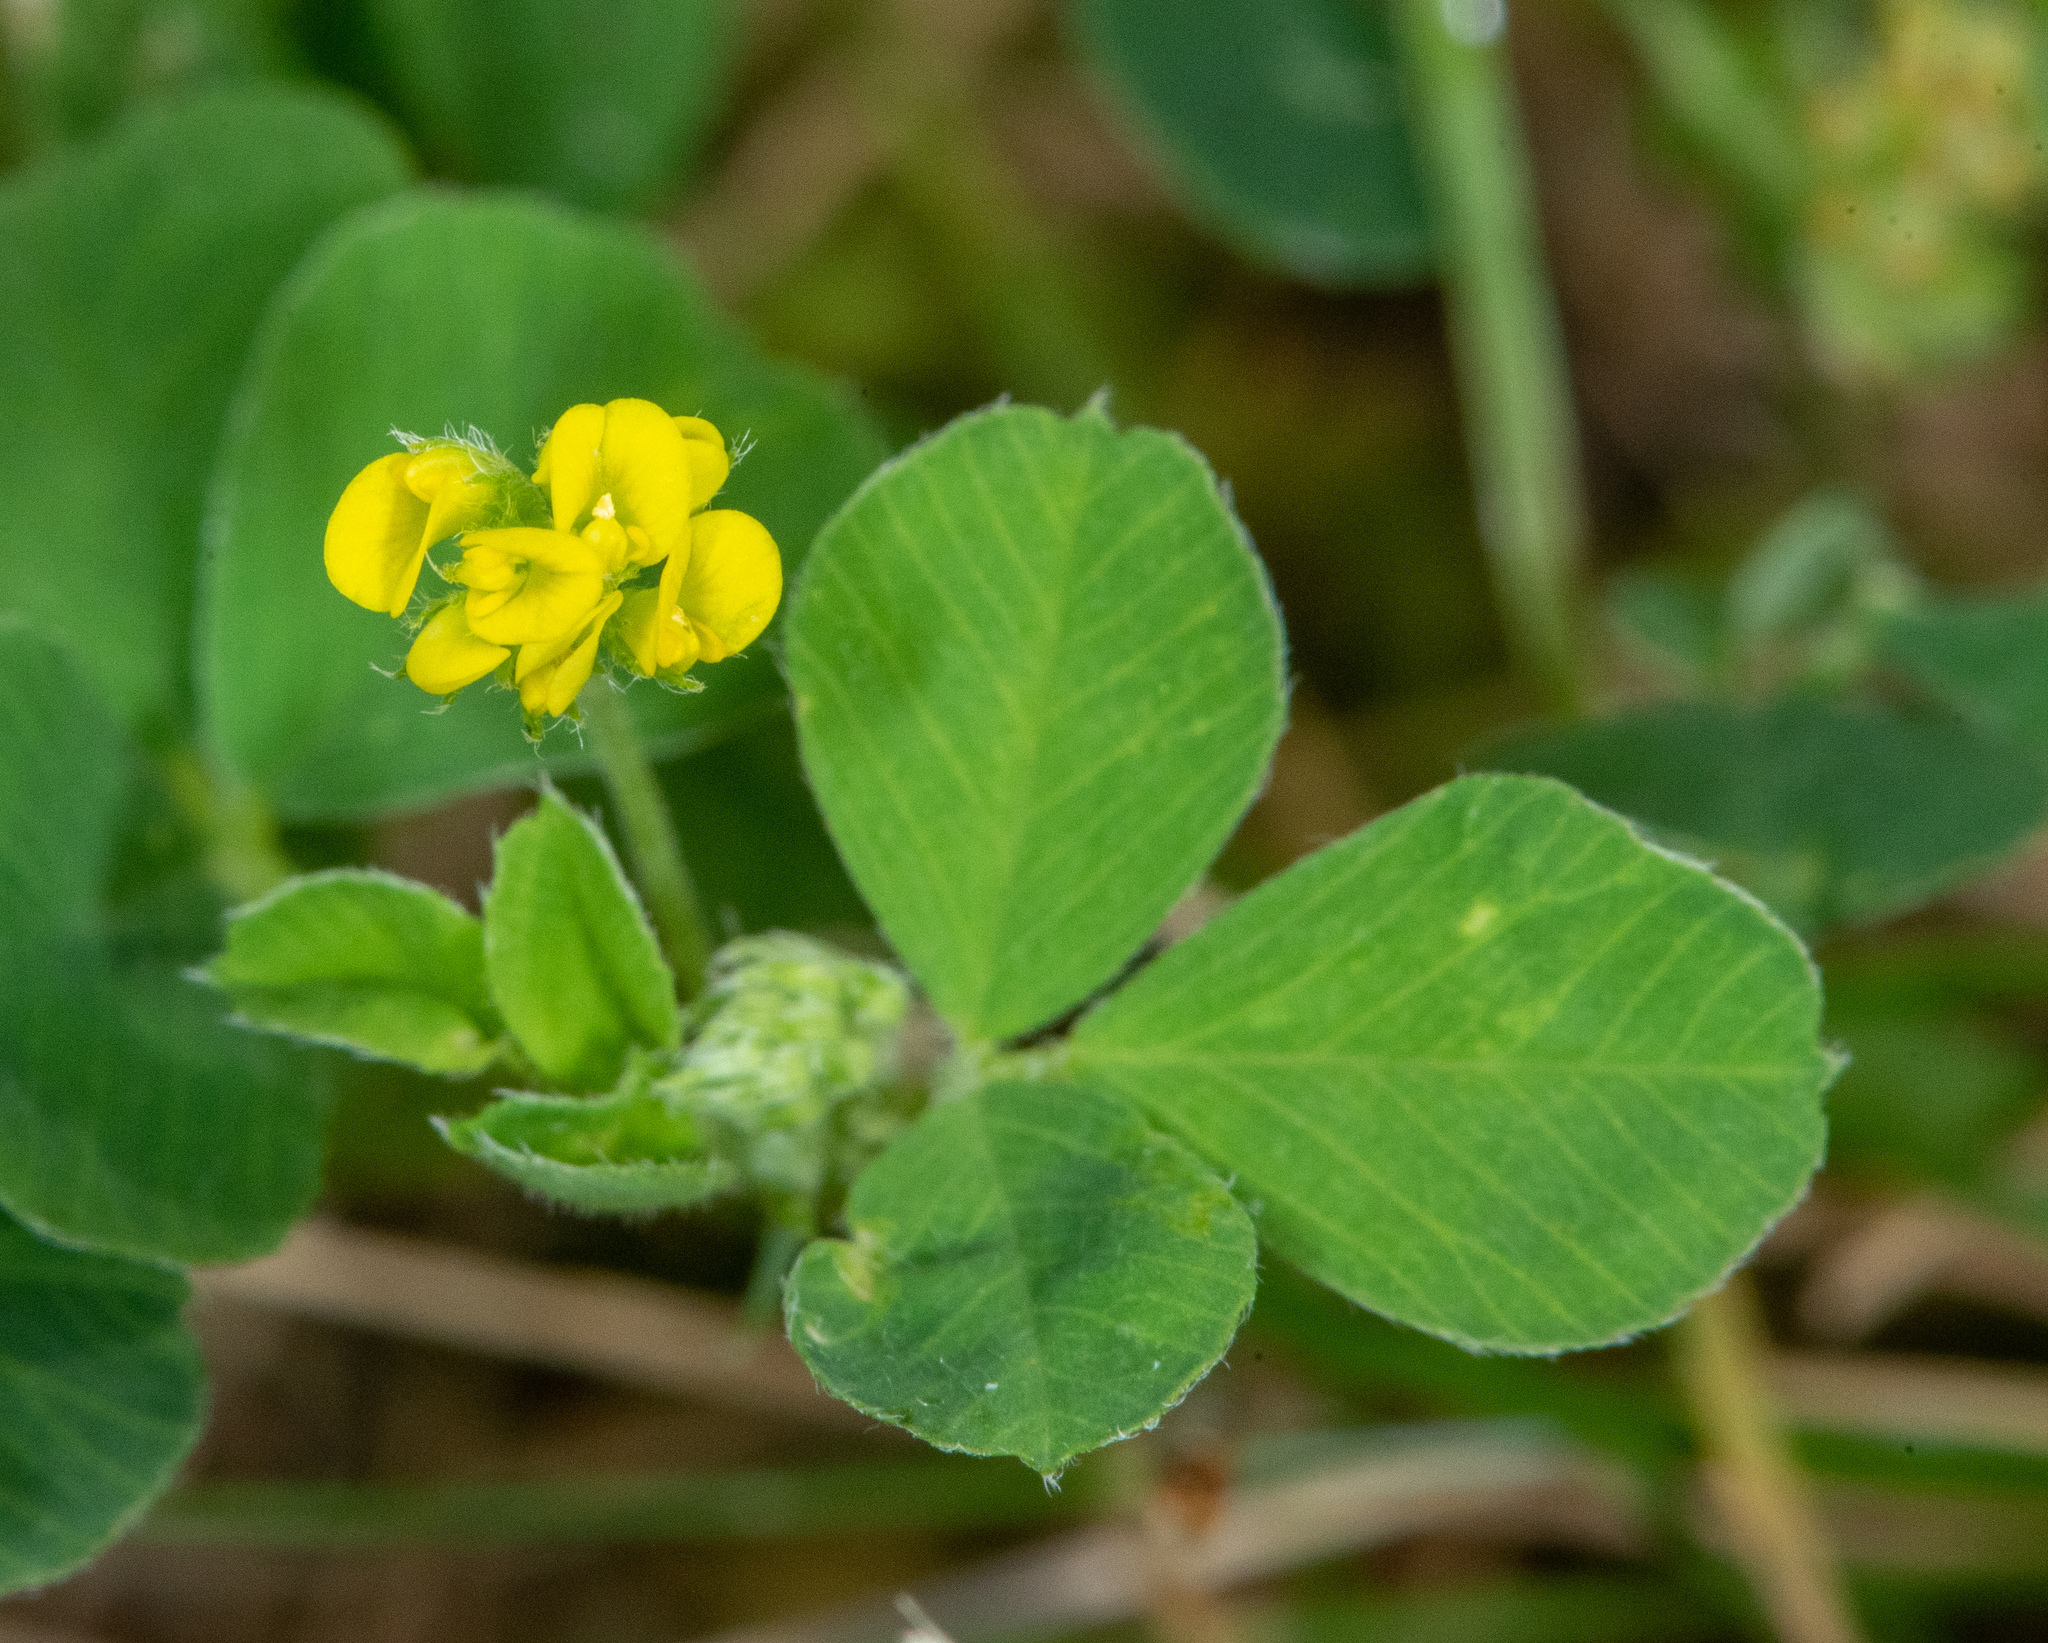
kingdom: Plantae
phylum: Tracheophyta
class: Magnoliopsida
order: Fabales
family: Fabaceae
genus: Medicago
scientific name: Medicago lupulina
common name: Black medick
